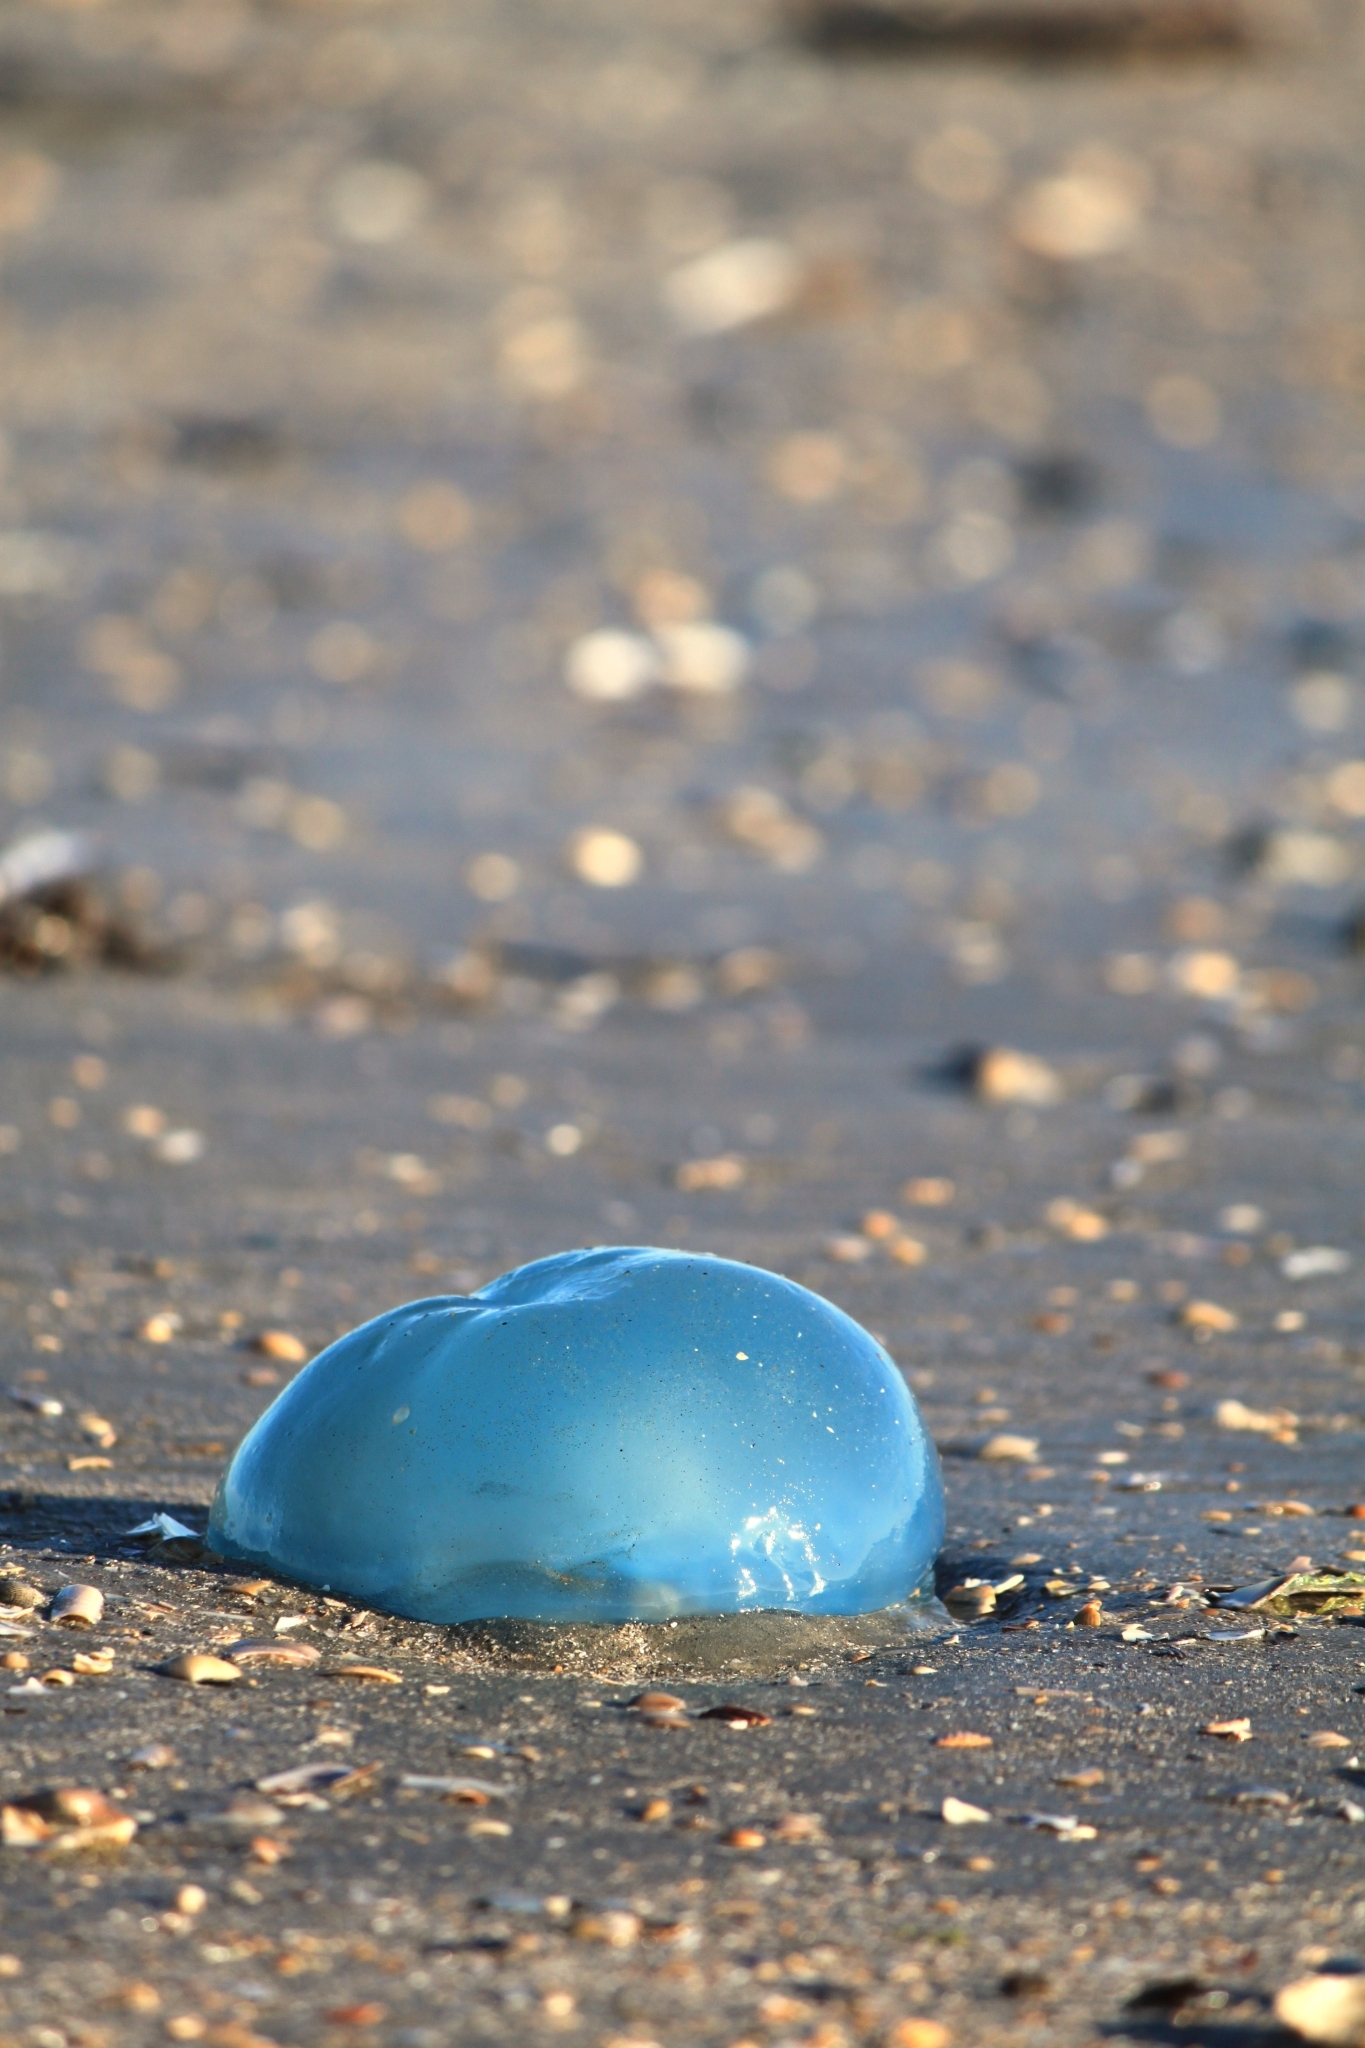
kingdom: Animalia
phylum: Cnidaria
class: Scyphozoa
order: Rhizostomeae
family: Rhizostomatidae
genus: Rhizostoma
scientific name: Rhizostoma octopus
